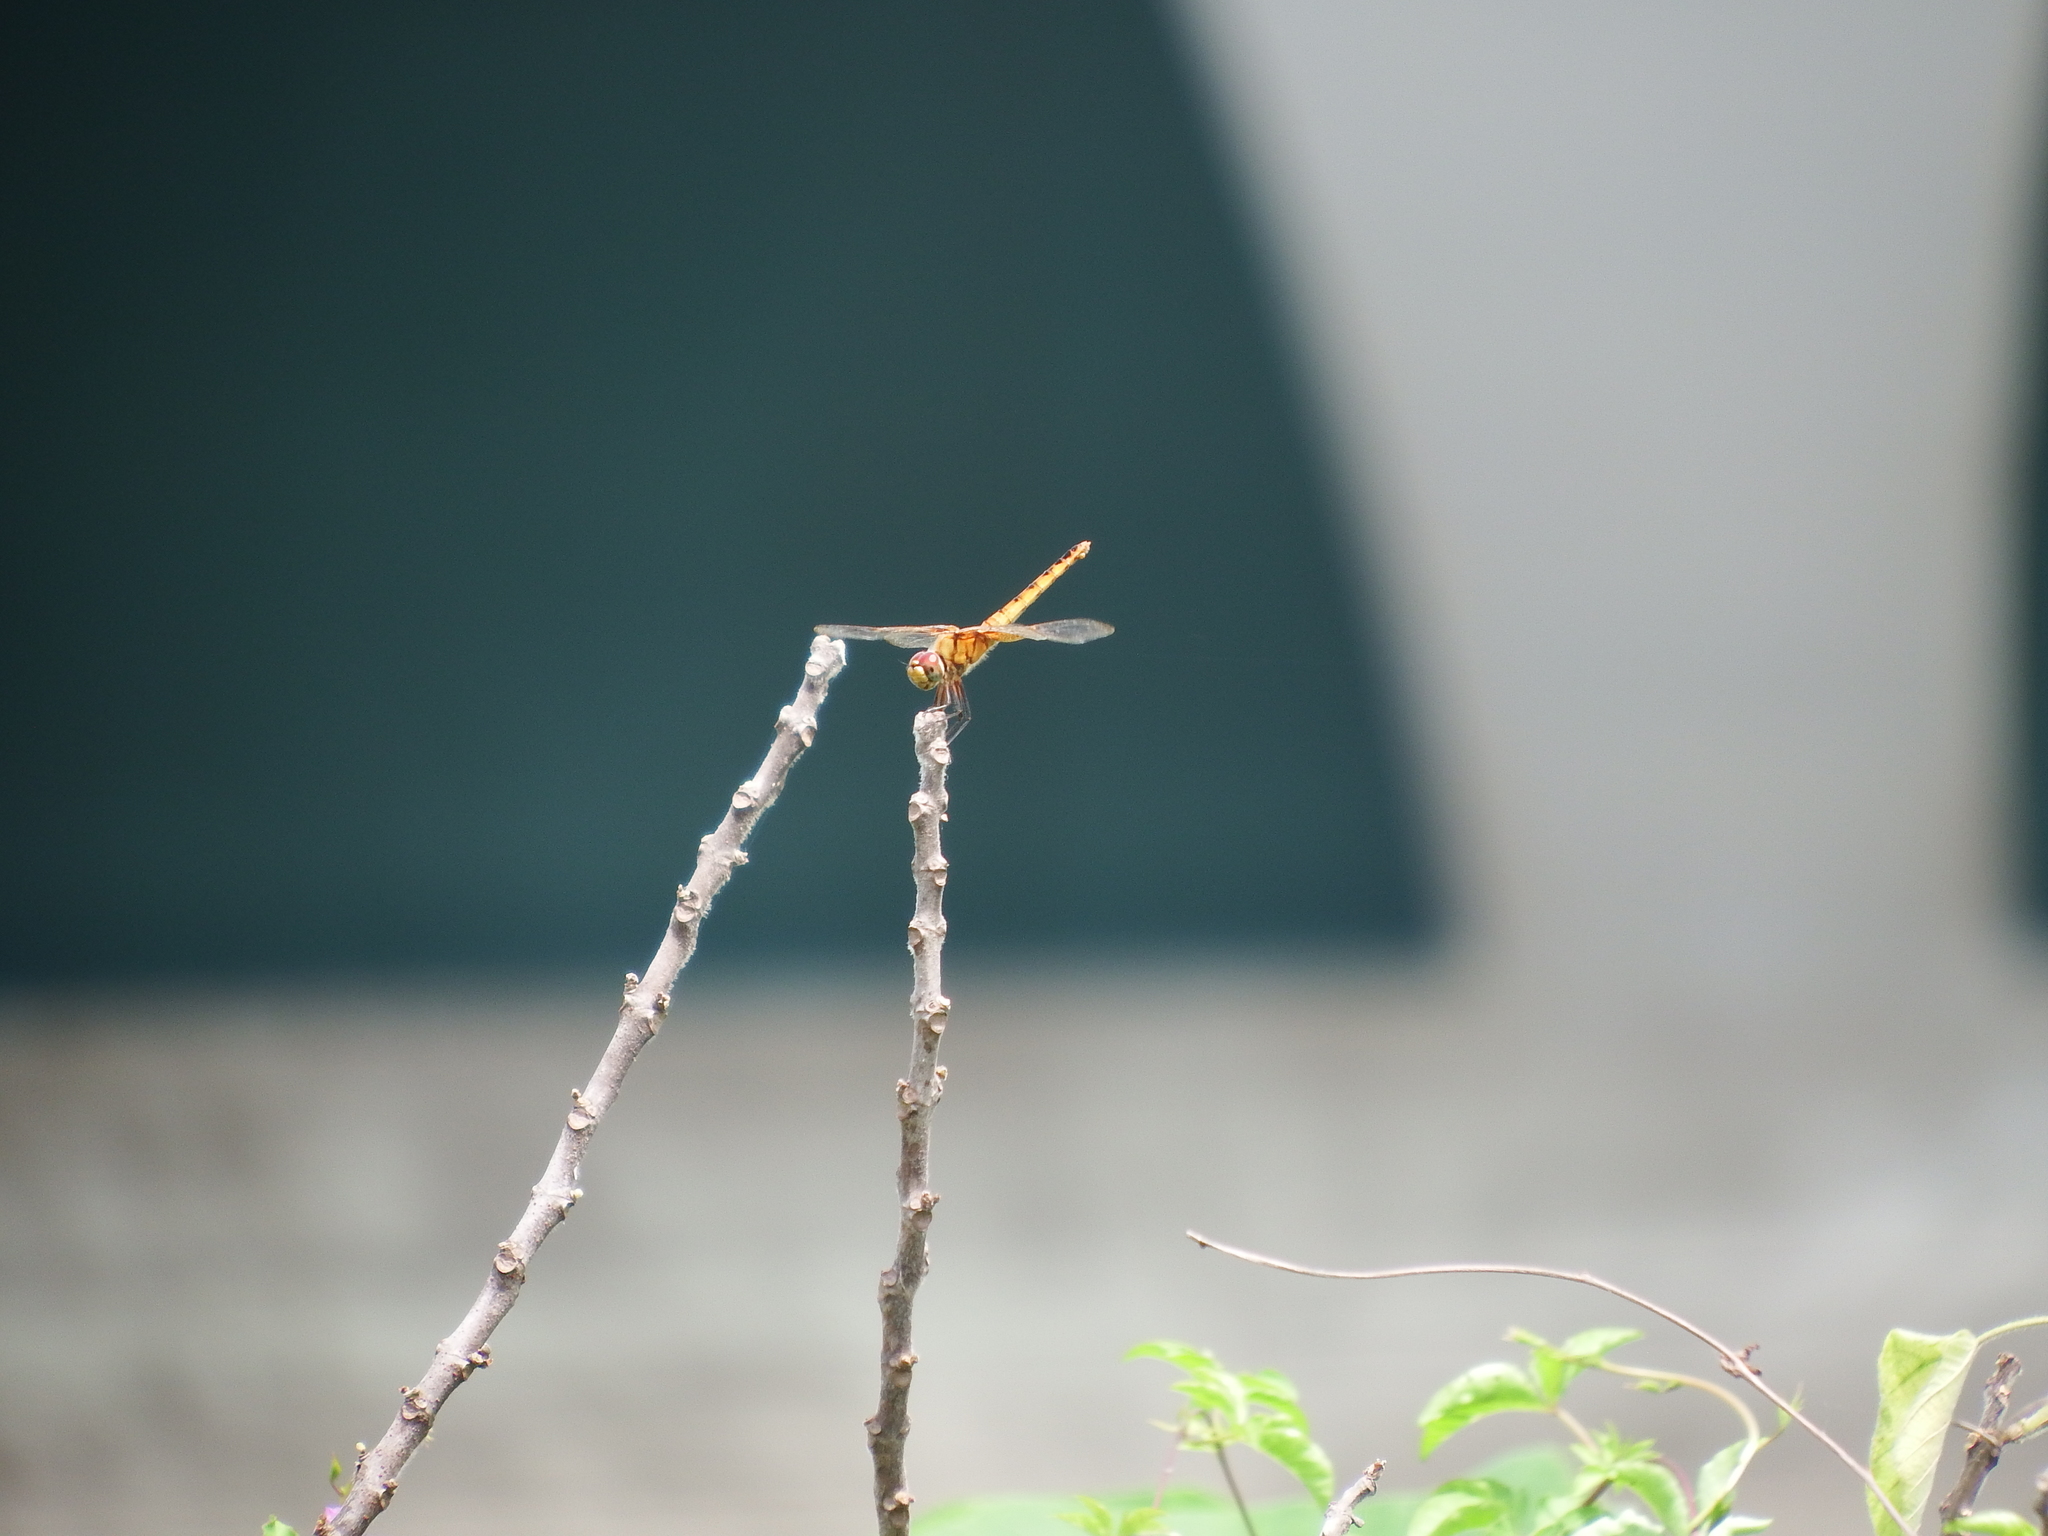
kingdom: Animalia
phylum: Arthropoda
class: Insecta
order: Odonata
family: Libellulidae
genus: Macrodiplax
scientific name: Macrodiplax cora
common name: Coastal glider
